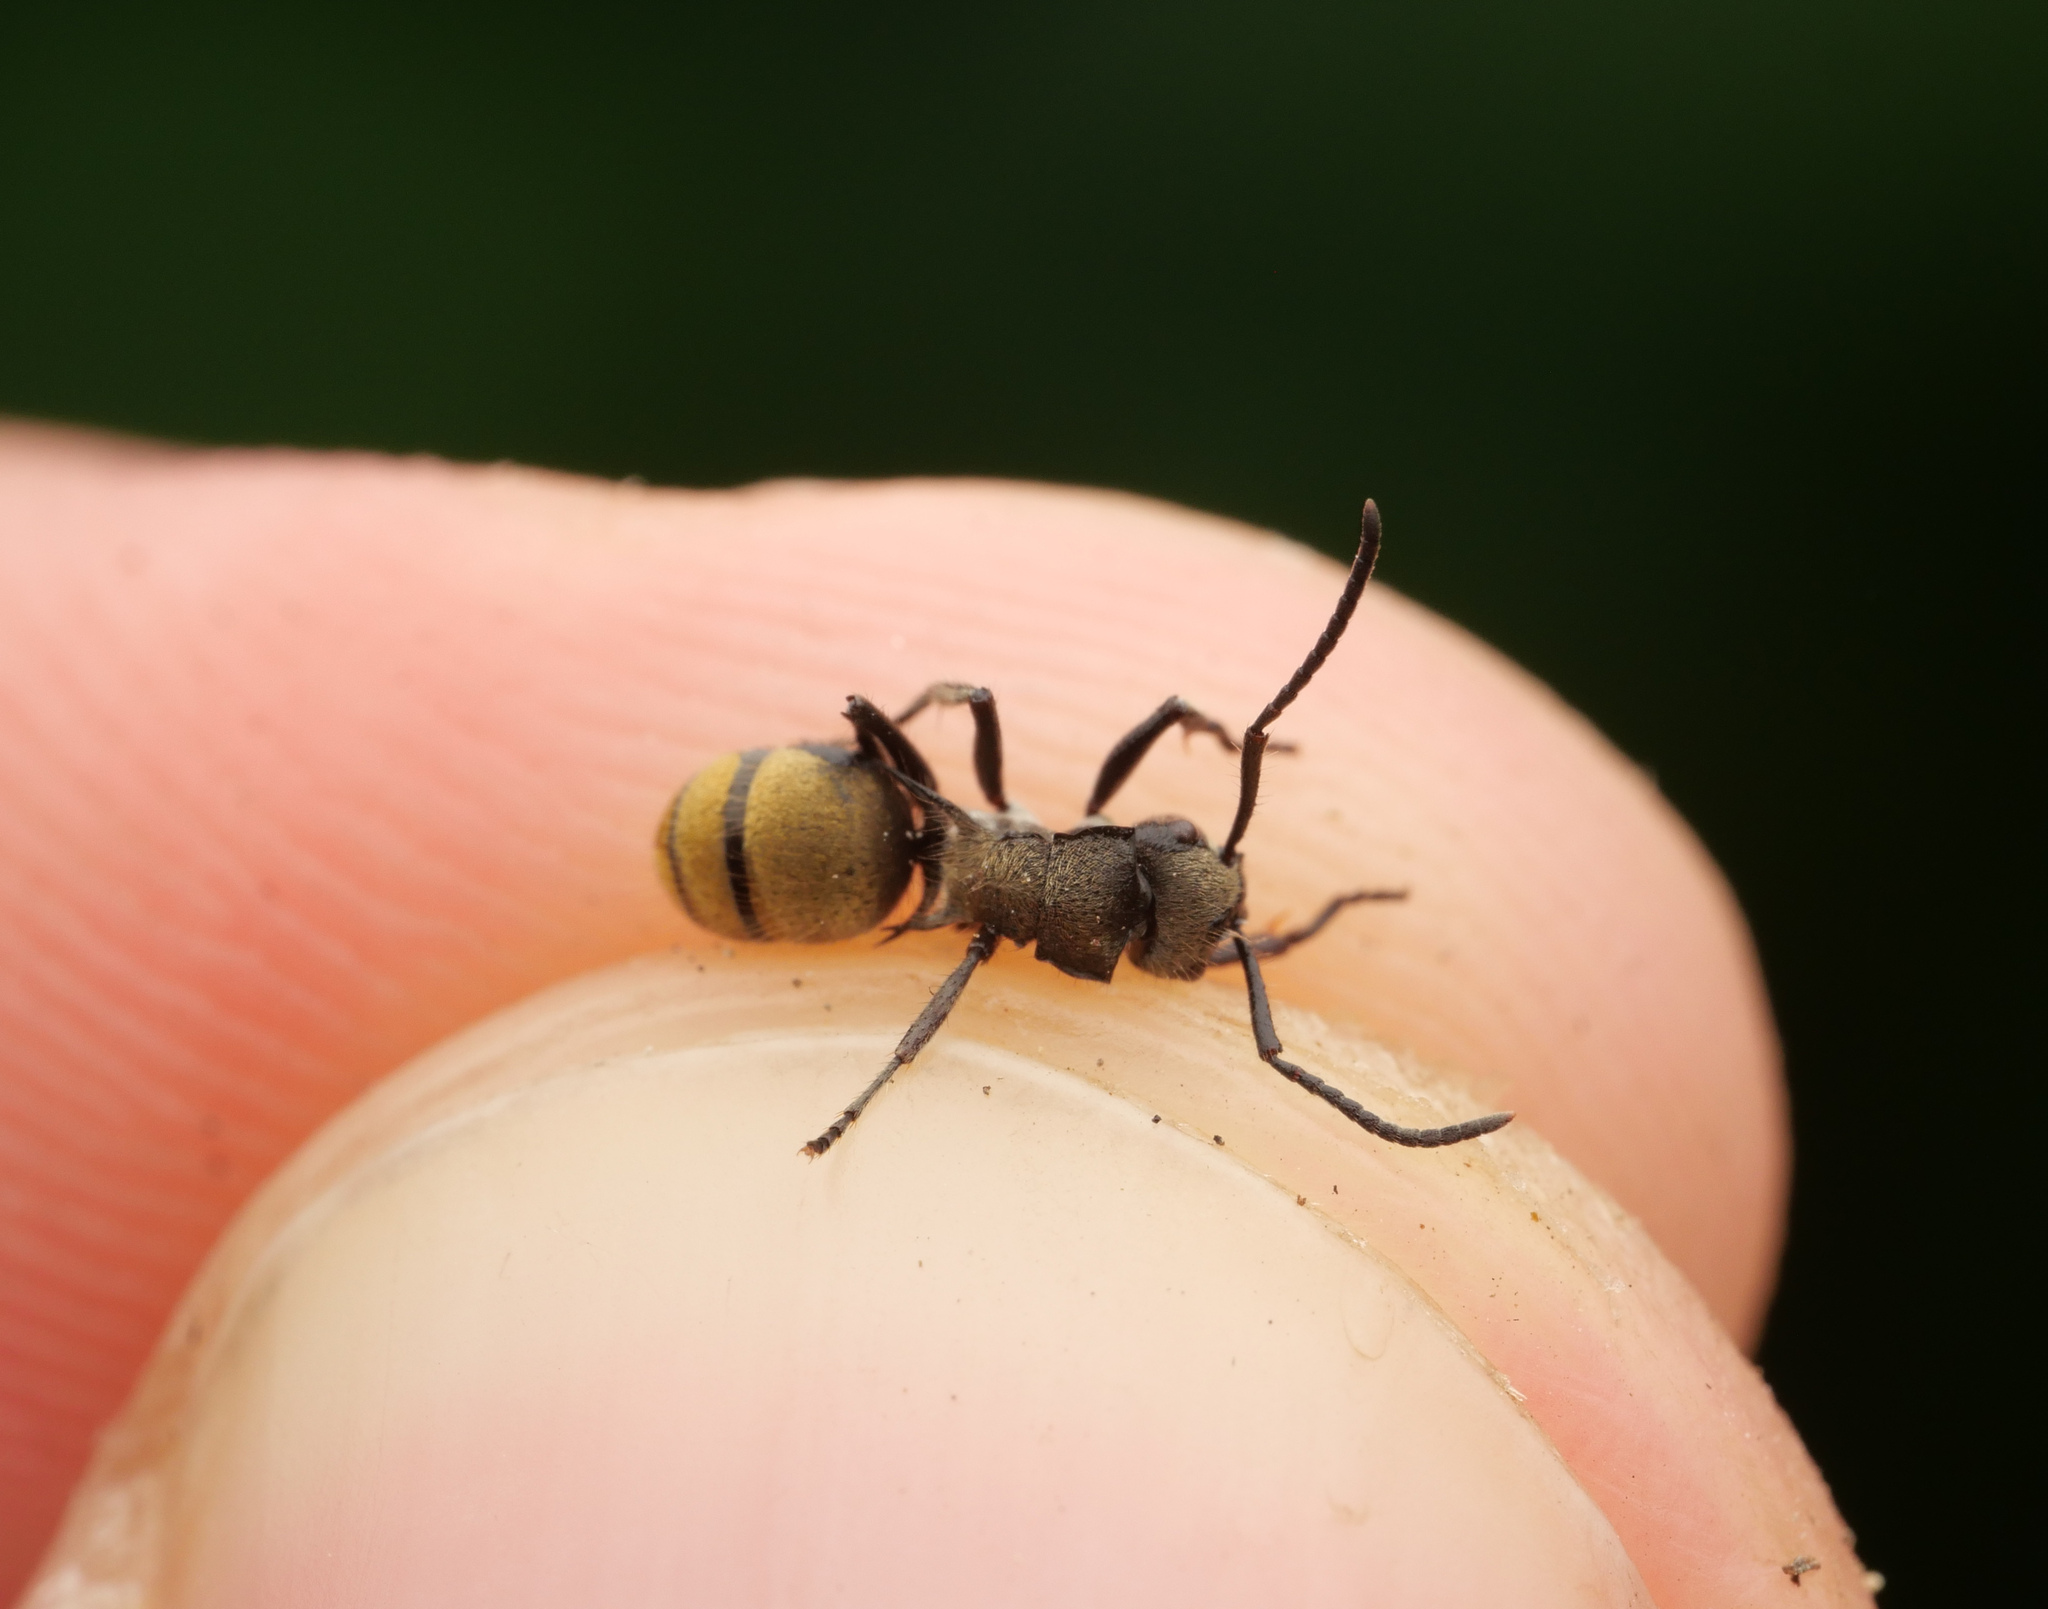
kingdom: Animalia
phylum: Arthropoda
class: Insecta
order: Hymenoptera
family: Formicidae
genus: Polyrhachis
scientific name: Polyrhachis limbata
